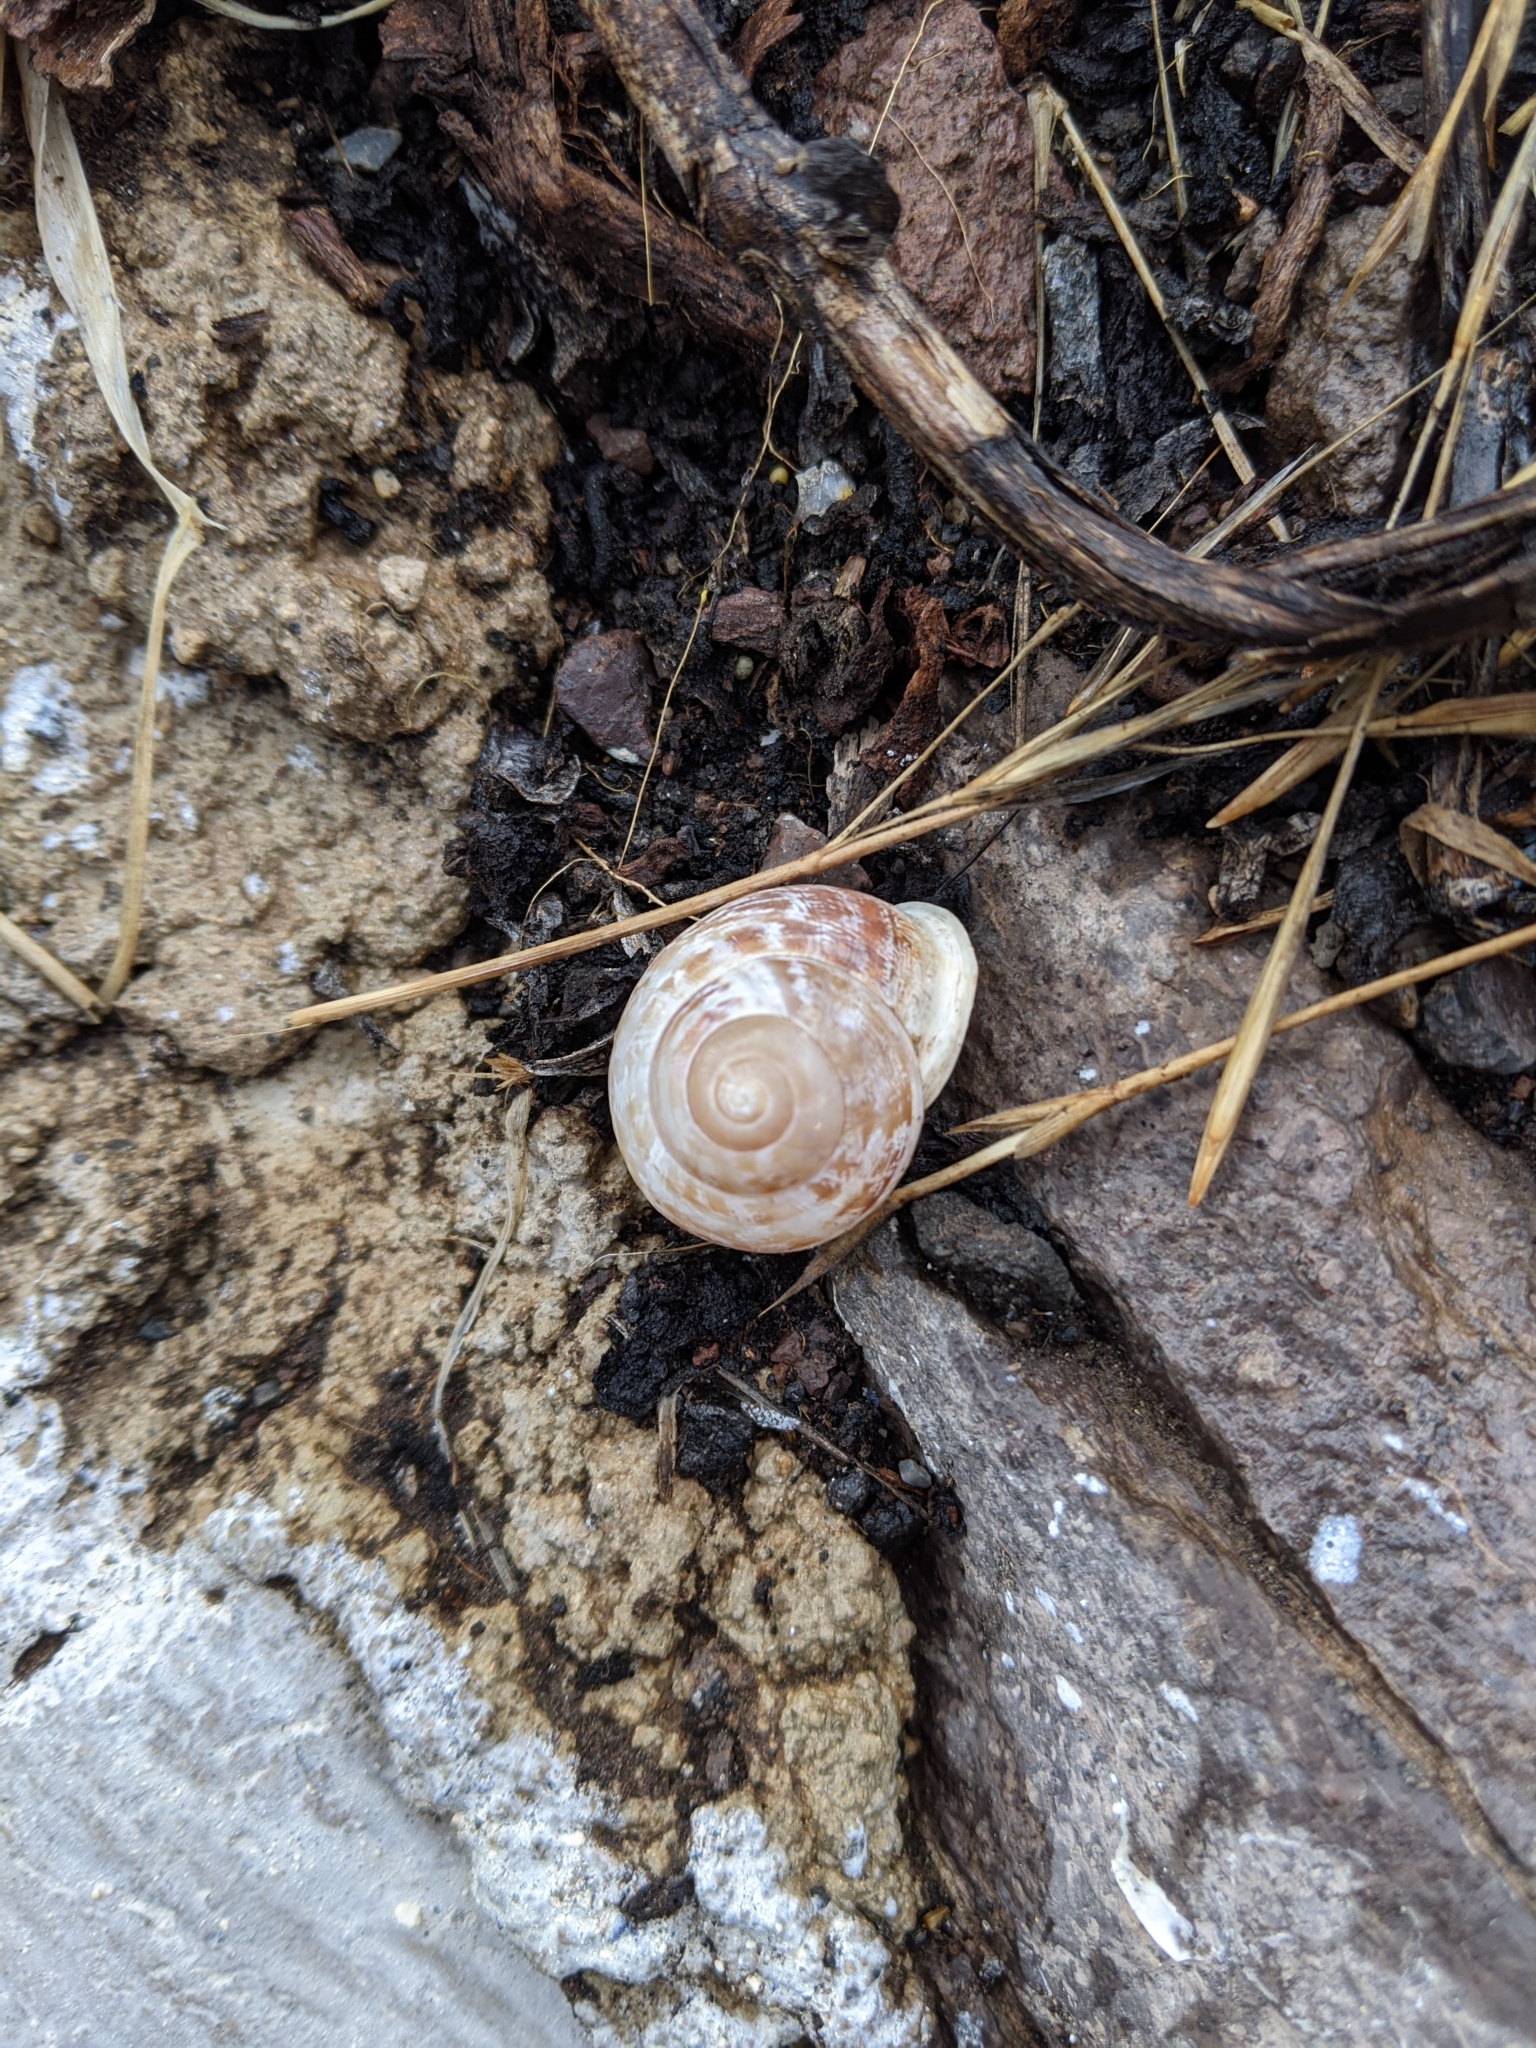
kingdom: Animalia
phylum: Mollusca
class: Gastropoda
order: Stylommatophora
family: Helicidae
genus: Eobania
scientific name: Eobania vermiculata
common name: Chocolateband snail
